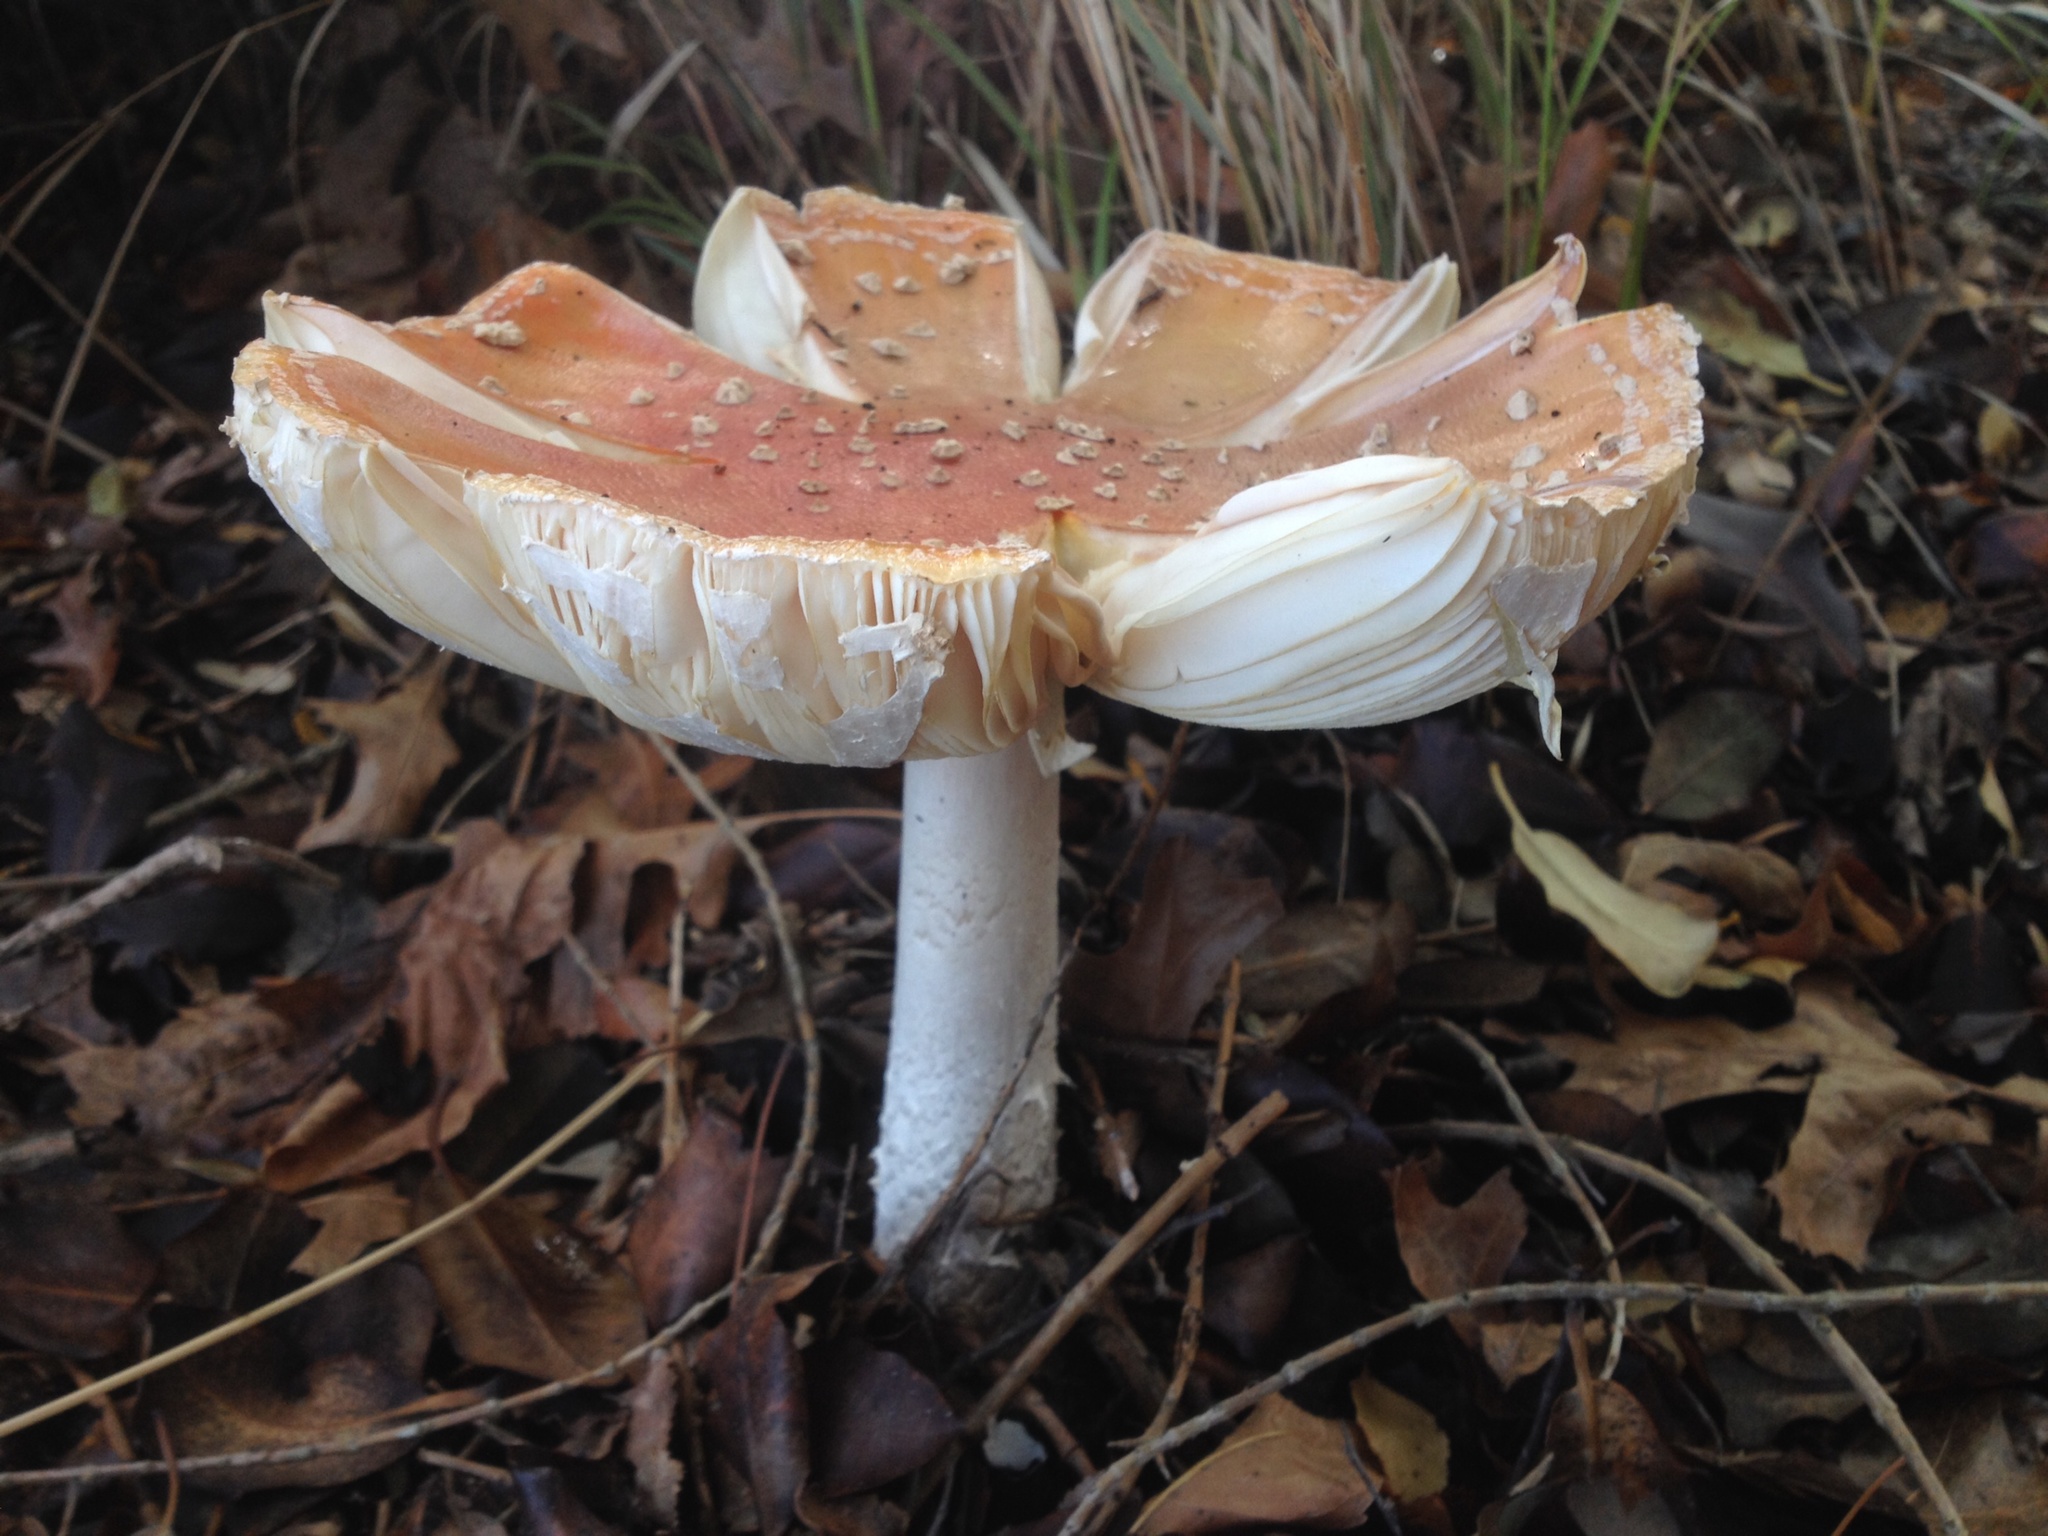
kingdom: Fungi
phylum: Basidiomycota
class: Agaricomycetes
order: Agaricales
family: Amanitaceae
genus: Amanita
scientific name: Amanita muscaria
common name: Fly agaric
